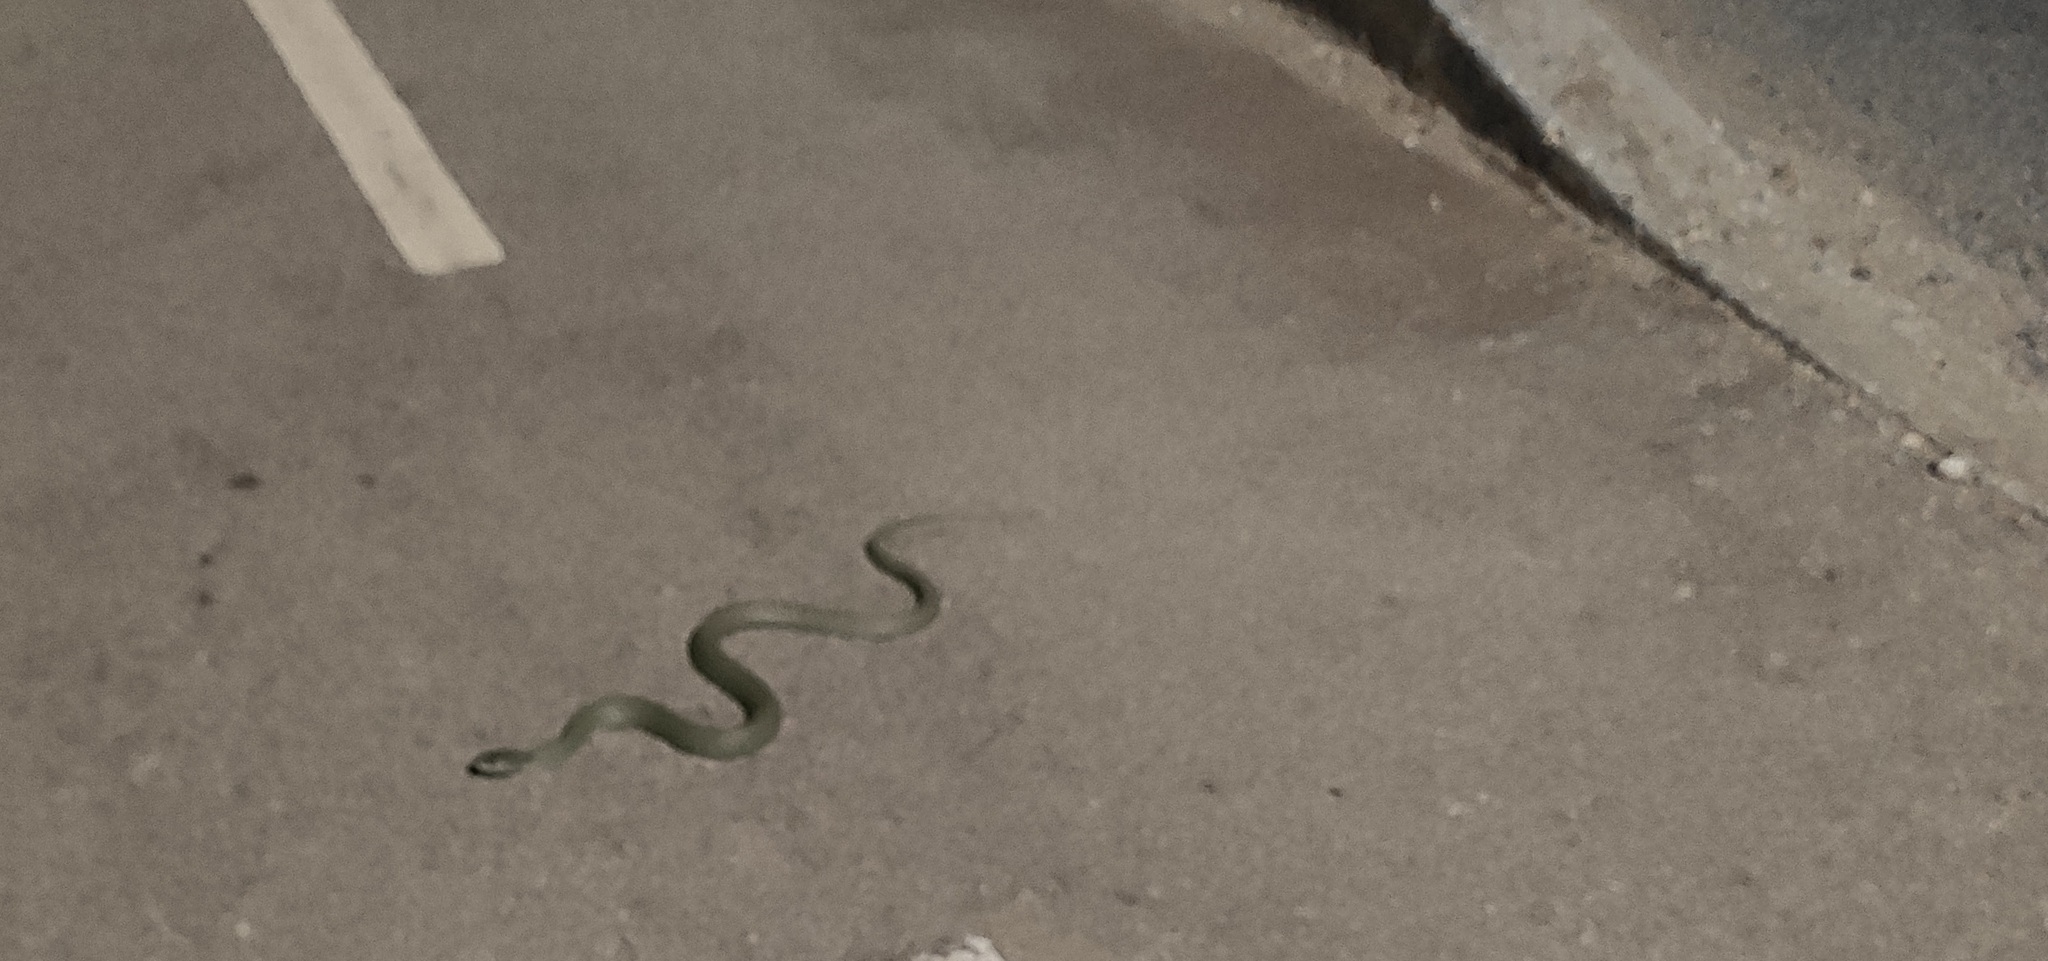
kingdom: Animalia
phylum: Chordata
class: Squamata
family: Colubridae
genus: Natrix
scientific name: Natrix astreptophora
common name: Red-eyed grass snake
